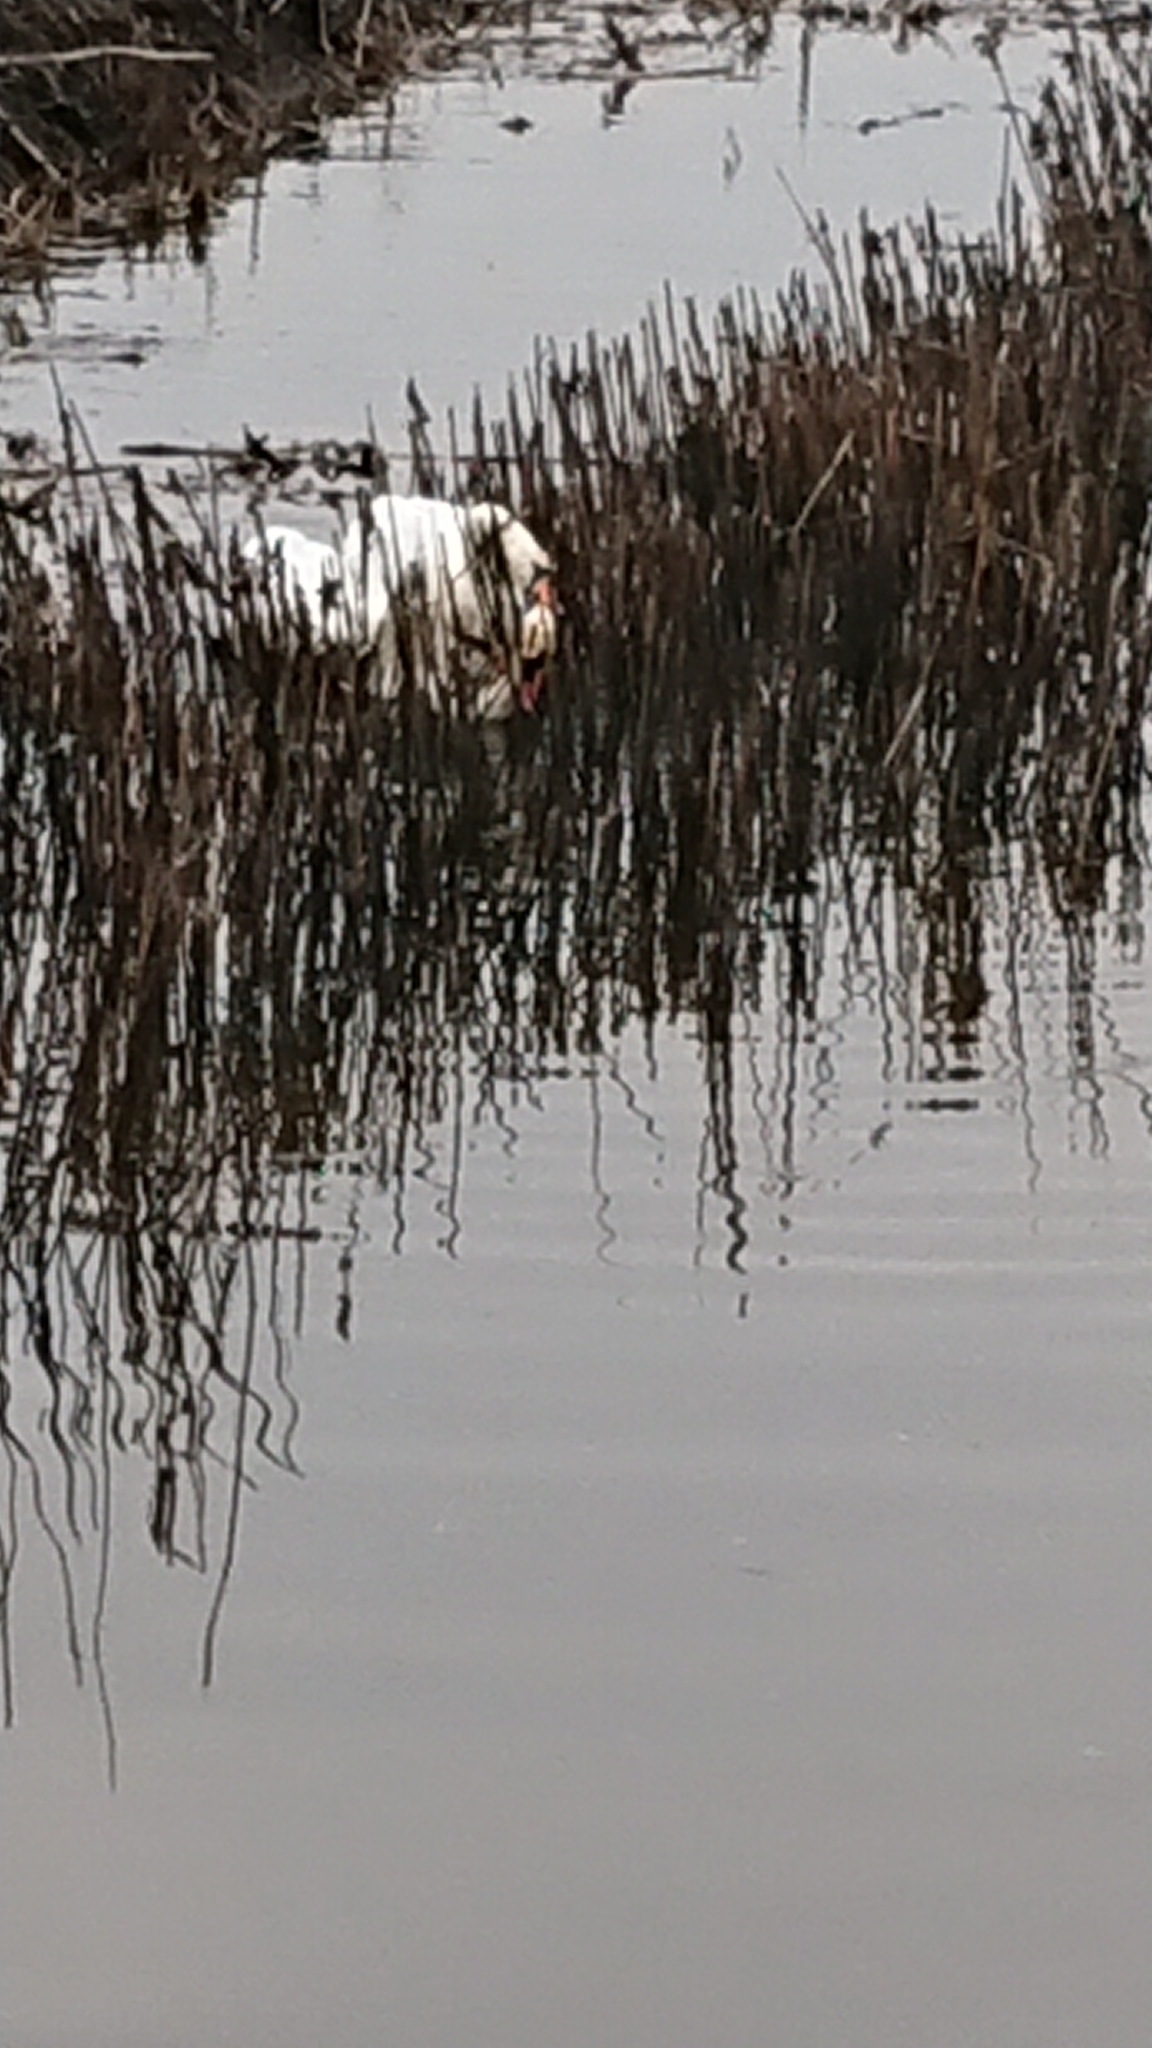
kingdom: Animalia
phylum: Chordata
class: Aves
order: Anseriformes
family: Anatidae
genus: Cygnus
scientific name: Cygnus olor
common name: Mute swan
